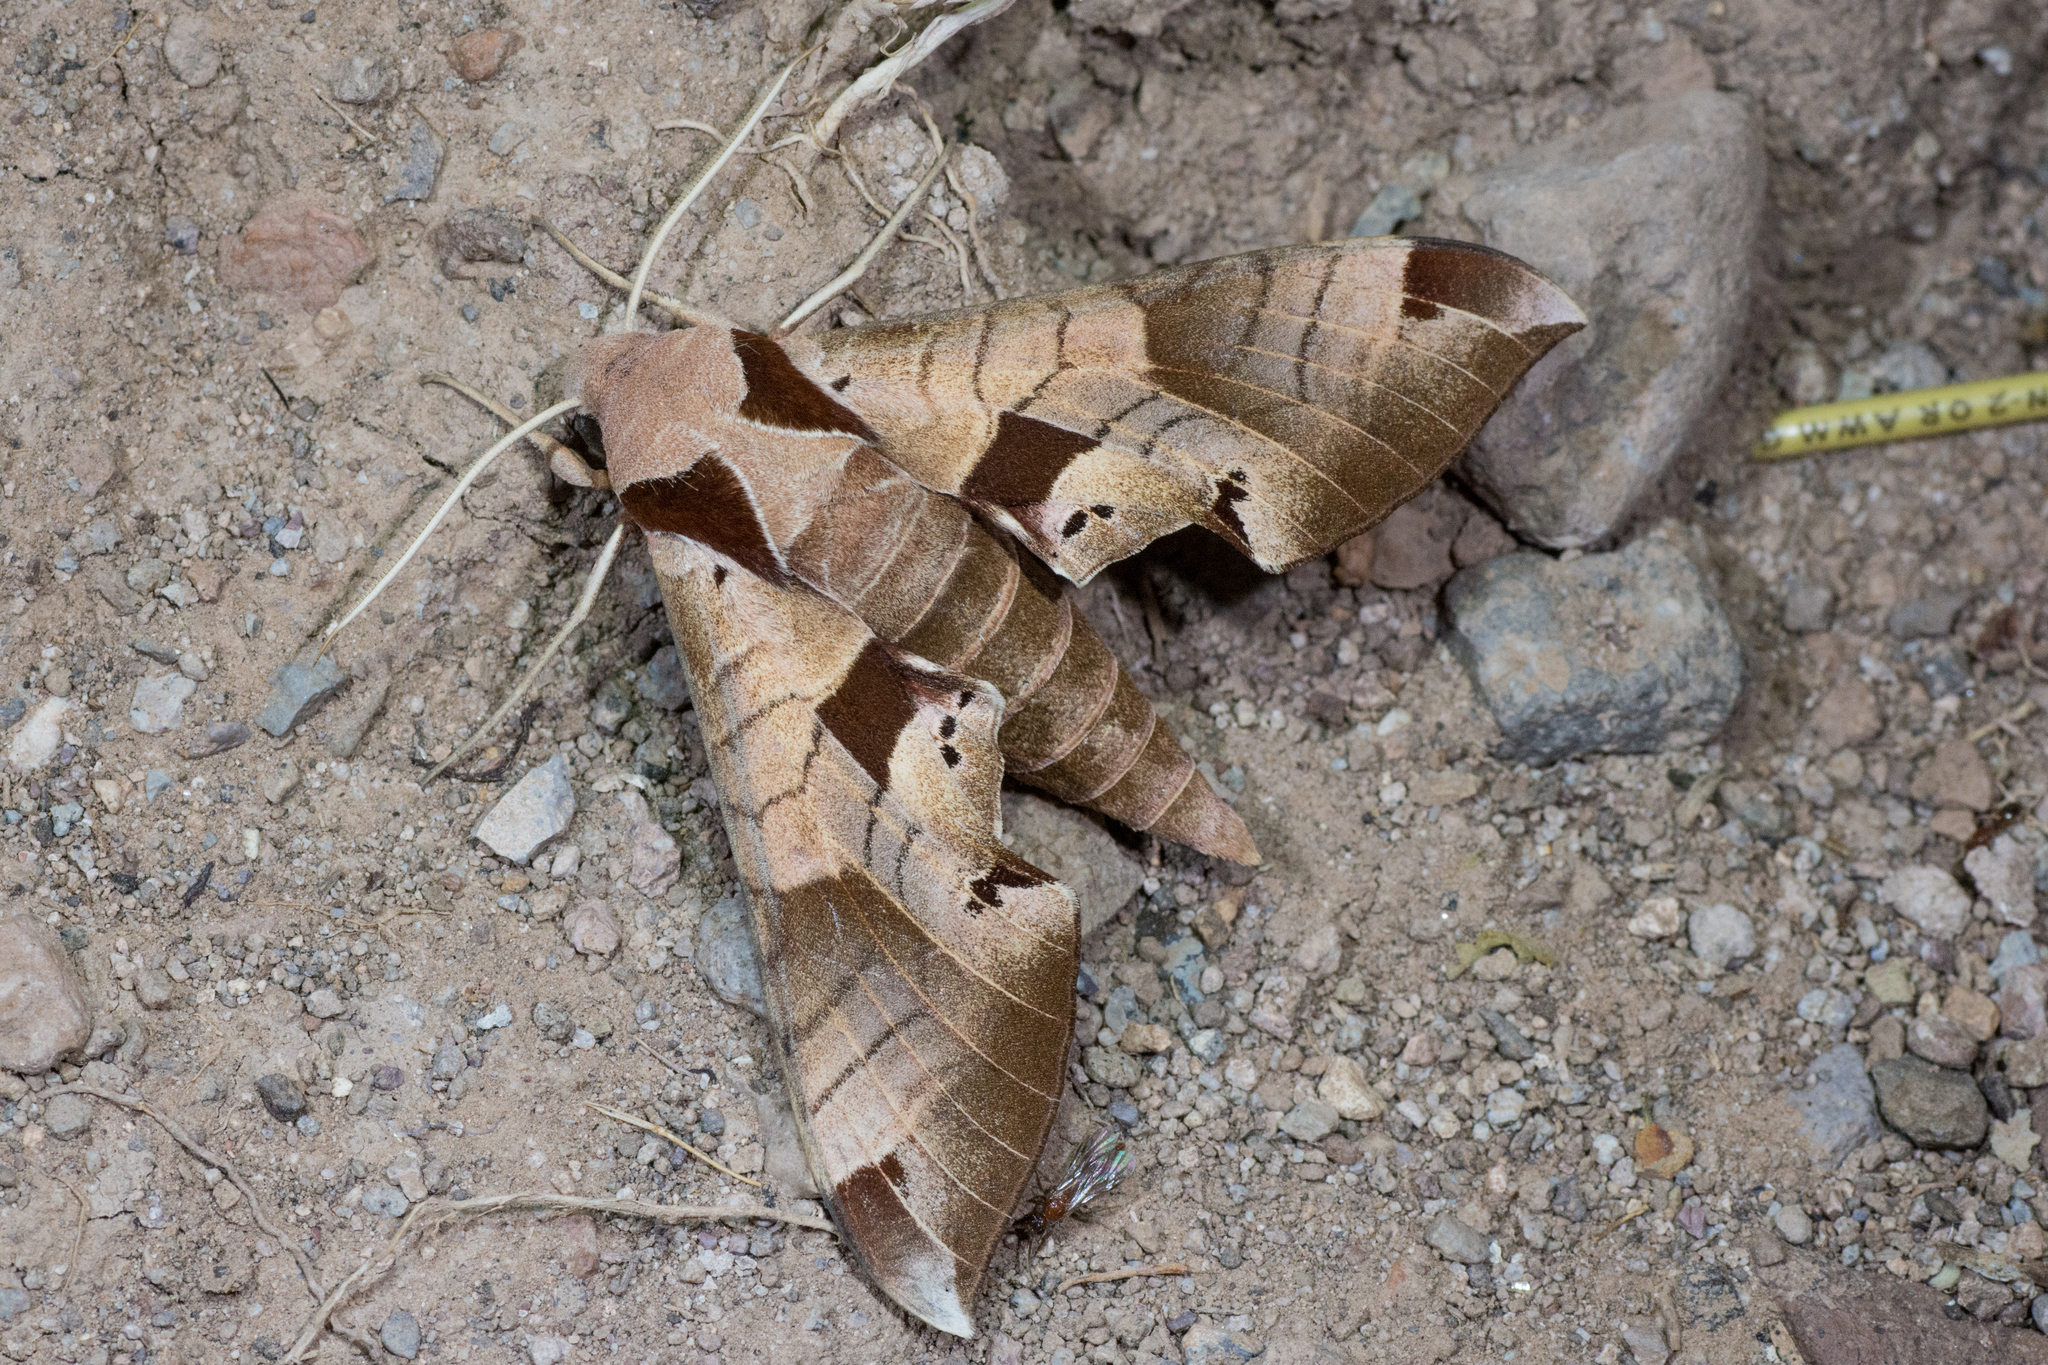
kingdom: Animalia
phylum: Arthropoda
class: Insecta
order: Lepidoptera
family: Sphingidae
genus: Eumorpha
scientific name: Eumorpha achemon
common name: Achemon sphinx
